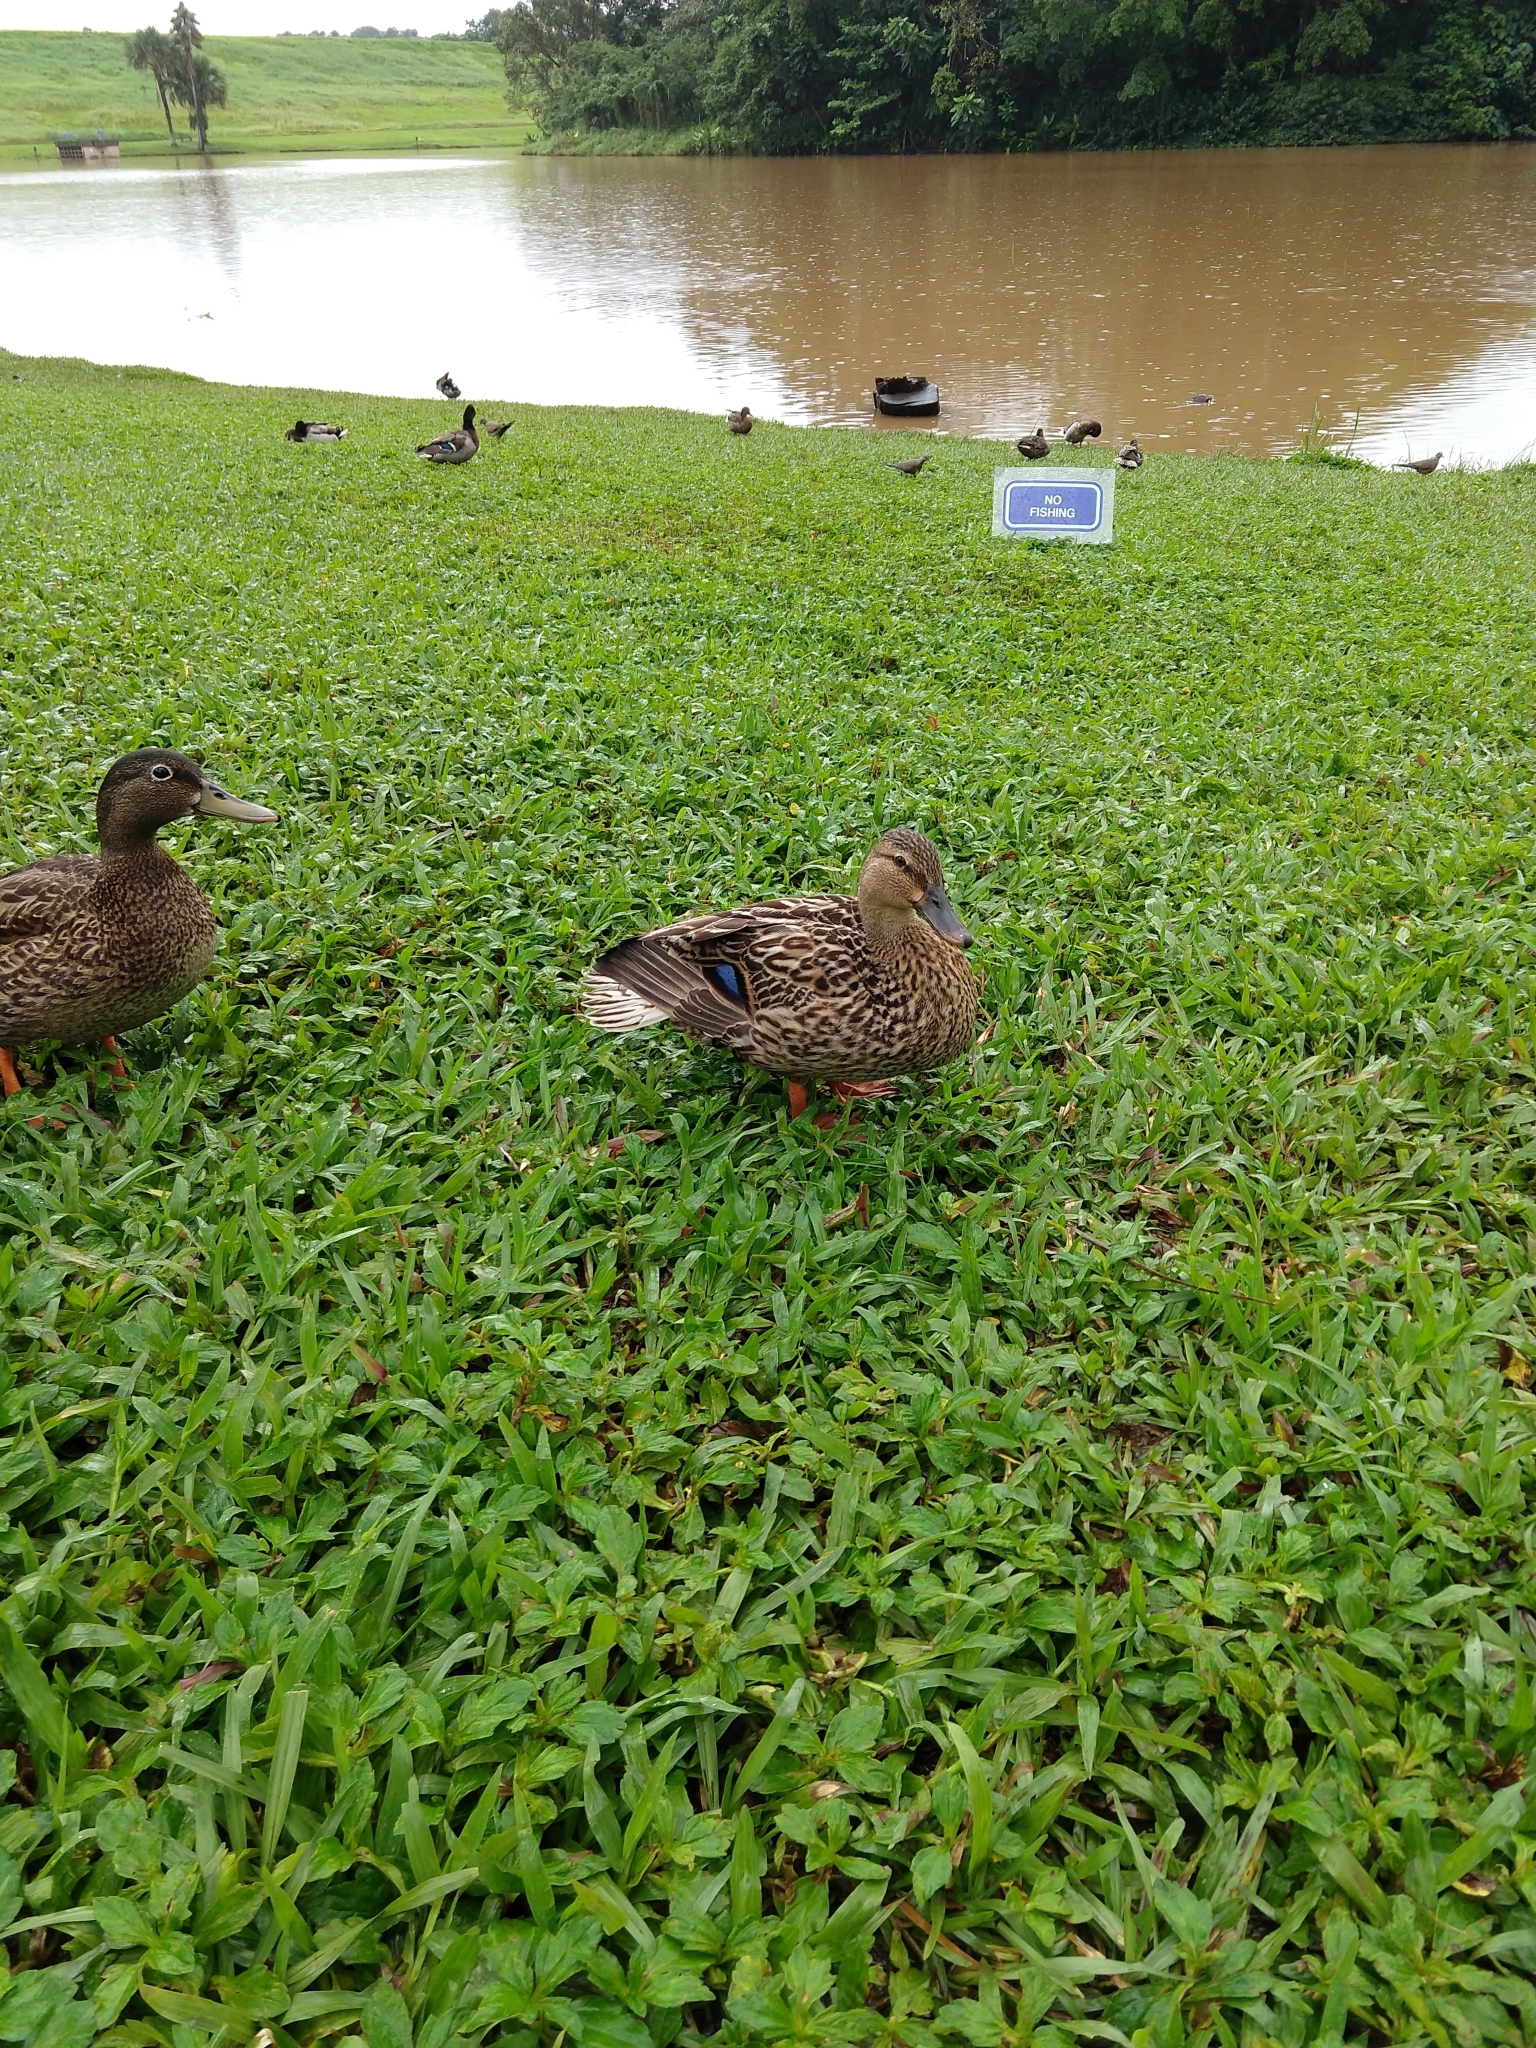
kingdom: Animalia
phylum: Chordata
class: Aves
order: Anseriformes
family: Anatidae
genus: Anas
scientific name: Anas platyrhynchos
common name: Mallard
